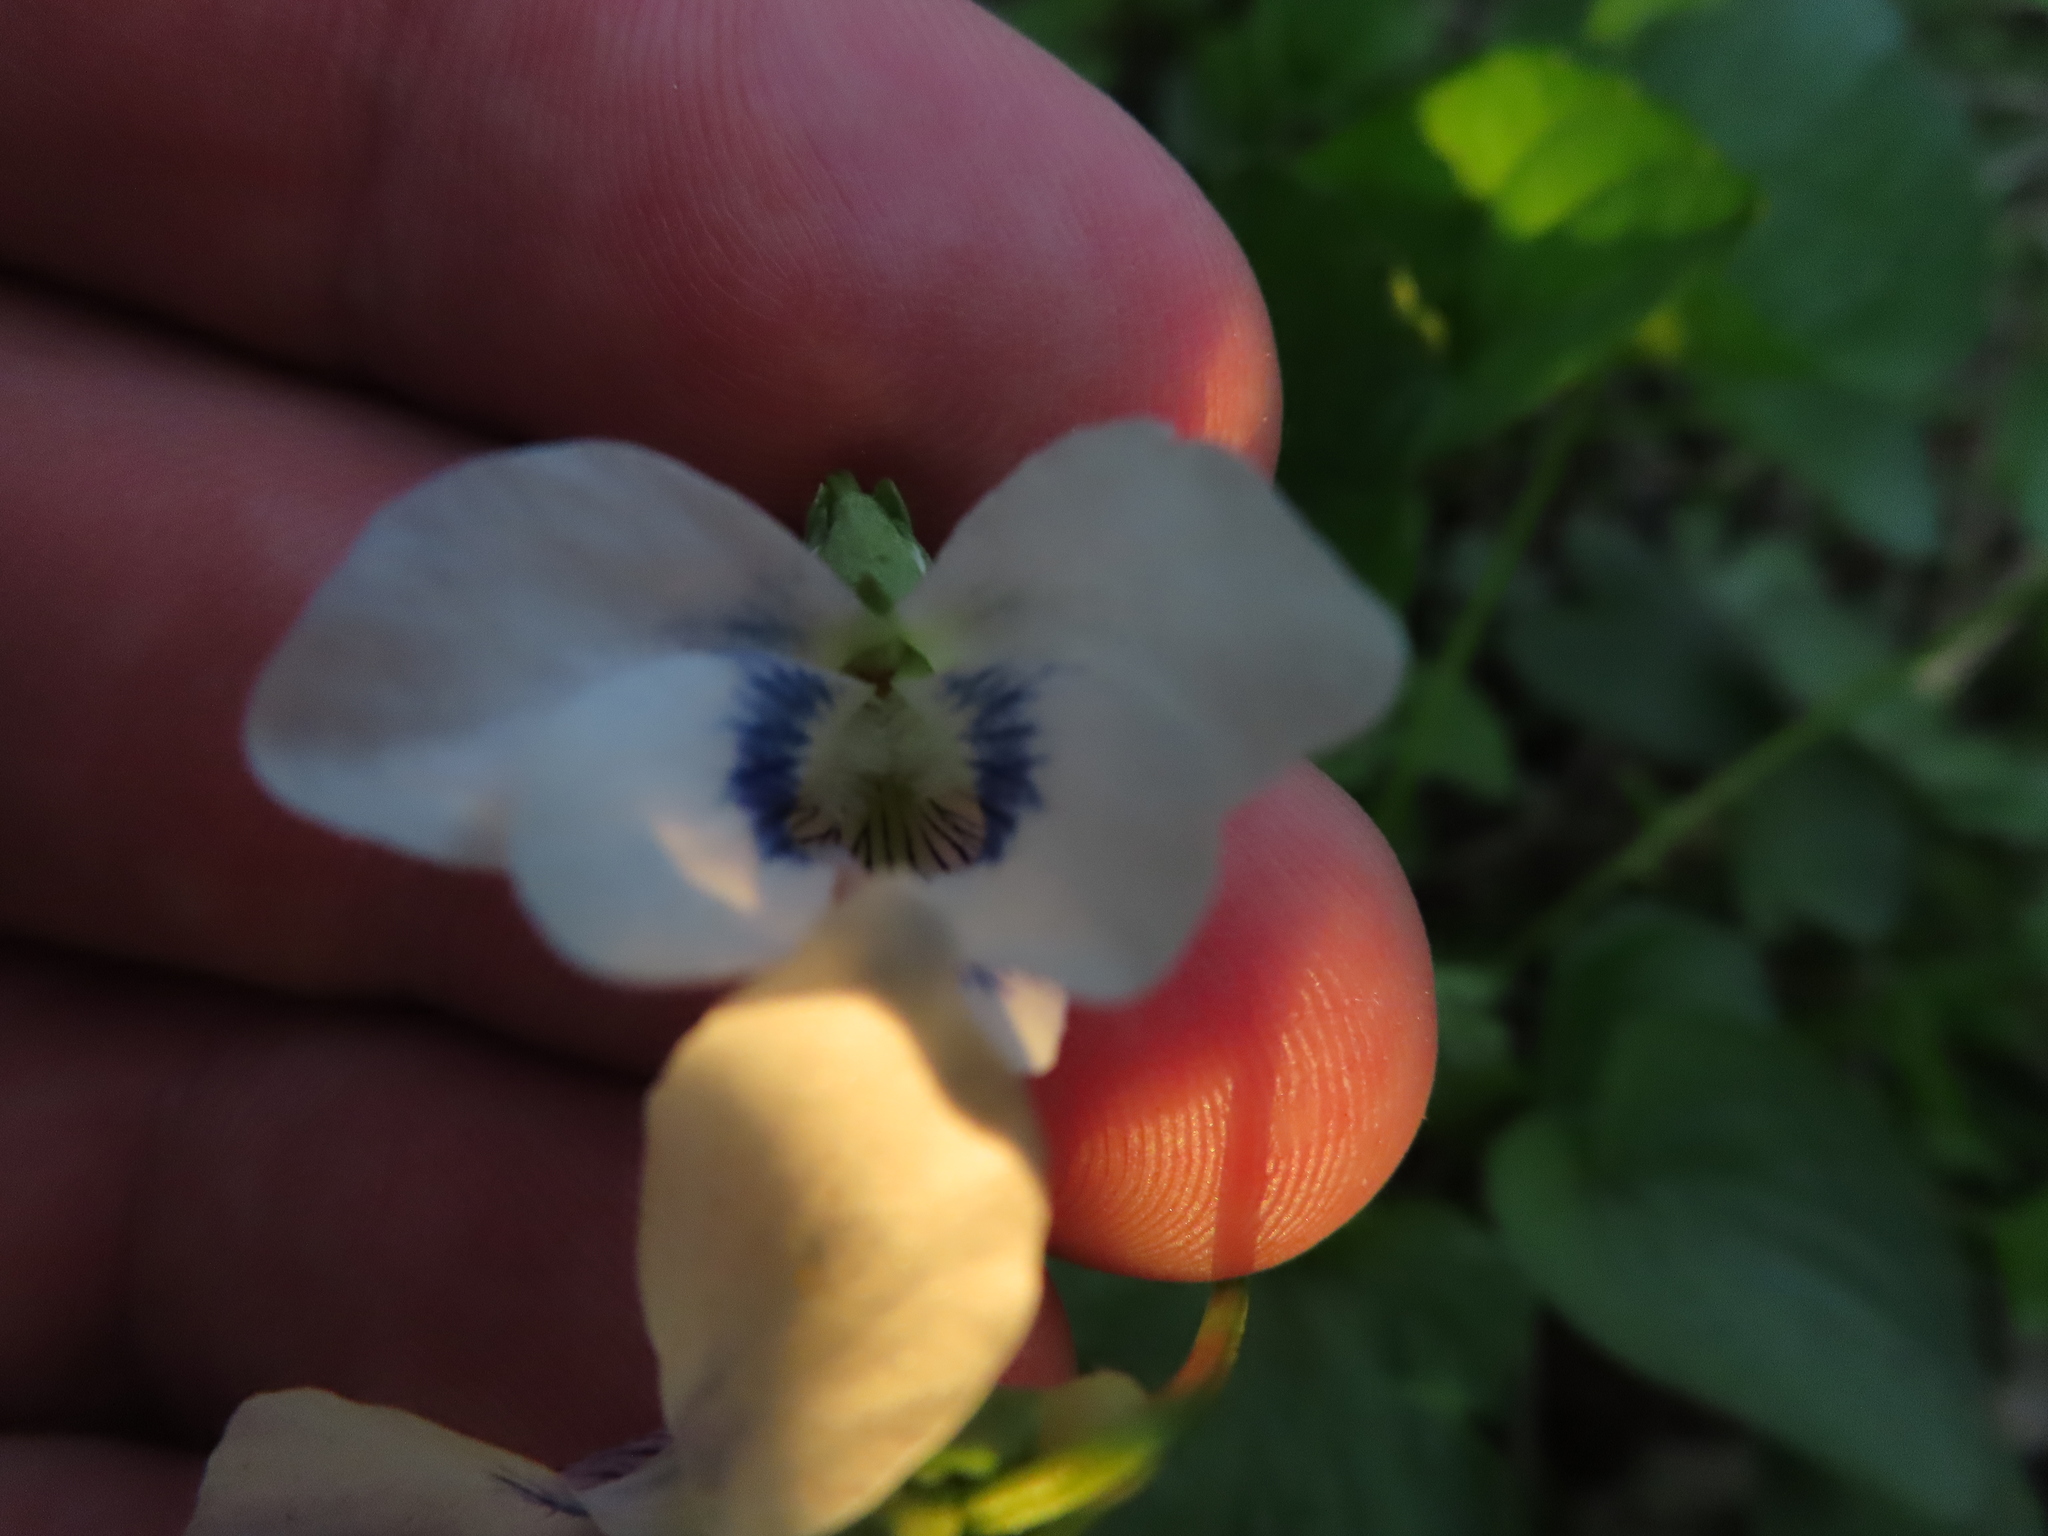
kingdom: Plantae
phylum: Tracheophyta
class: Magnoliopsida
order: Malpighiales
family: Violaceae
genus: Viola
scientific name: Viola sororia
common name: Dooryard violet
